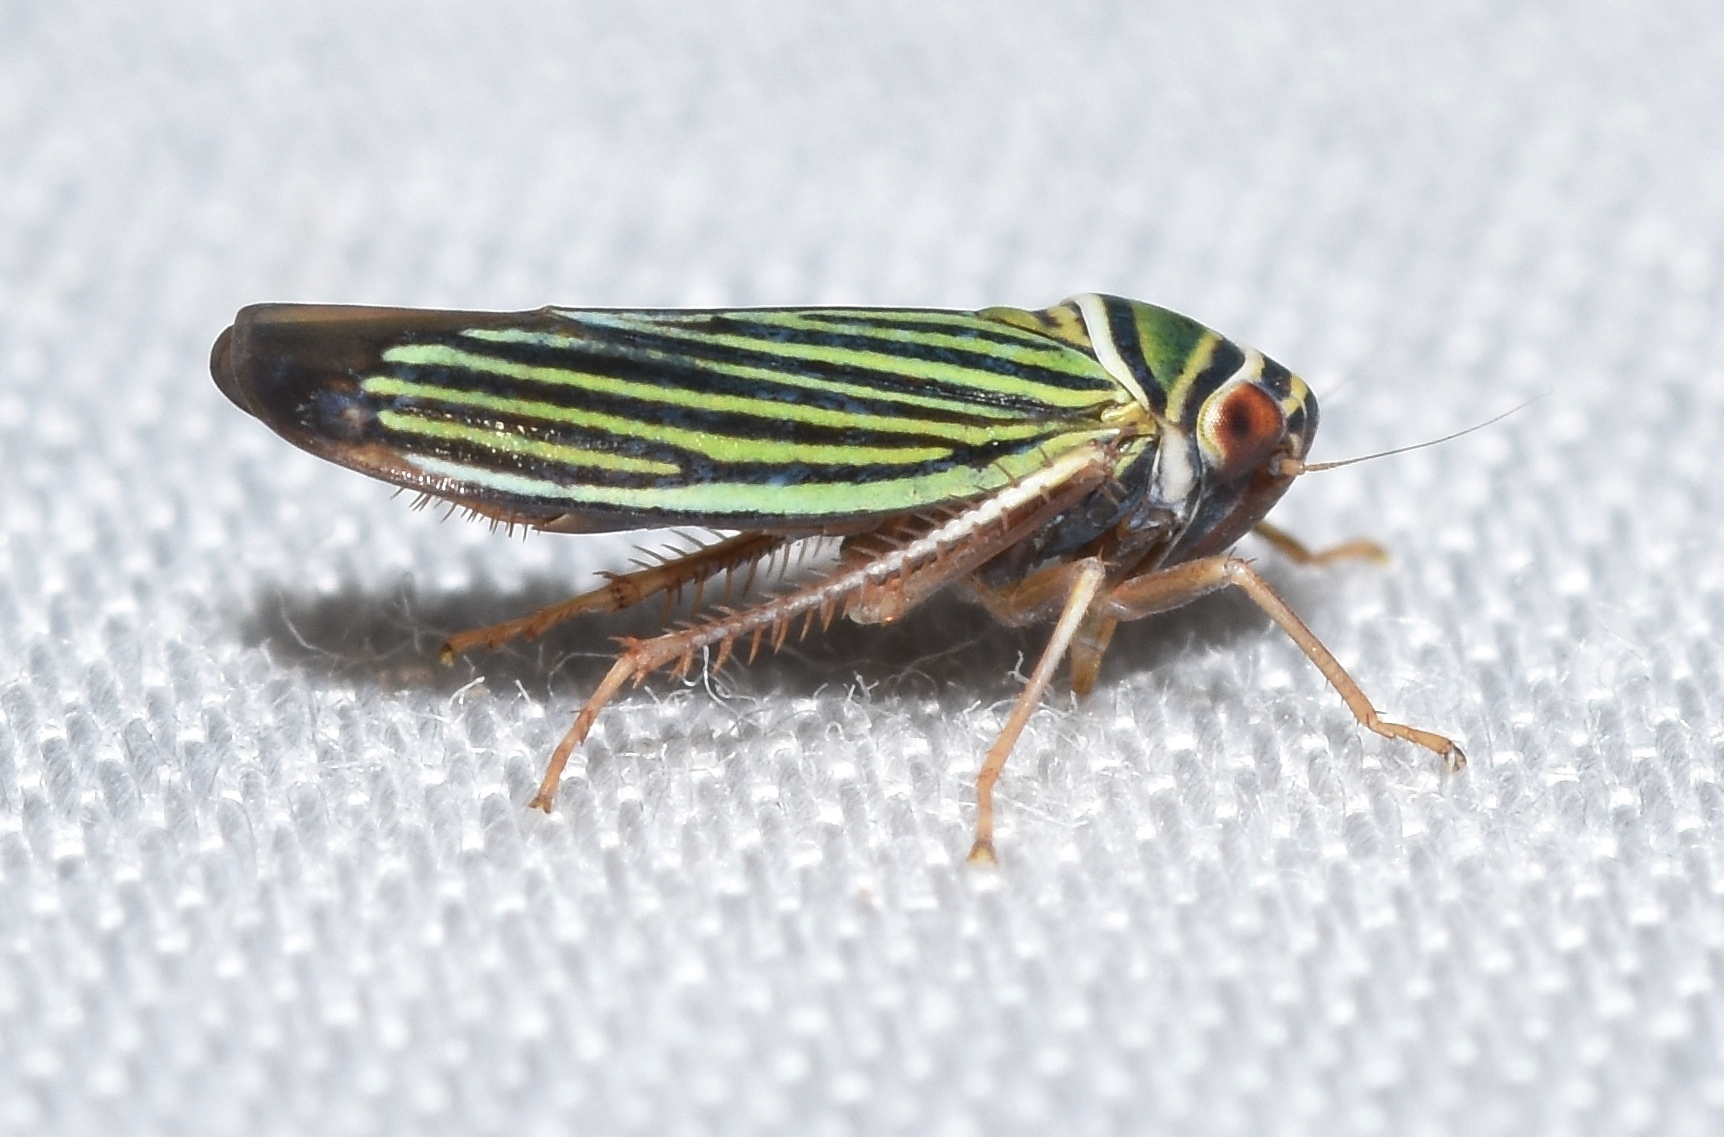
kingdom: Animalia
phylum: Arthropoda
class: Insecta
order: Hemiptera
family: Cicadellidae
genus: Tylozygus
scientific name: Tylozygus bifidus
